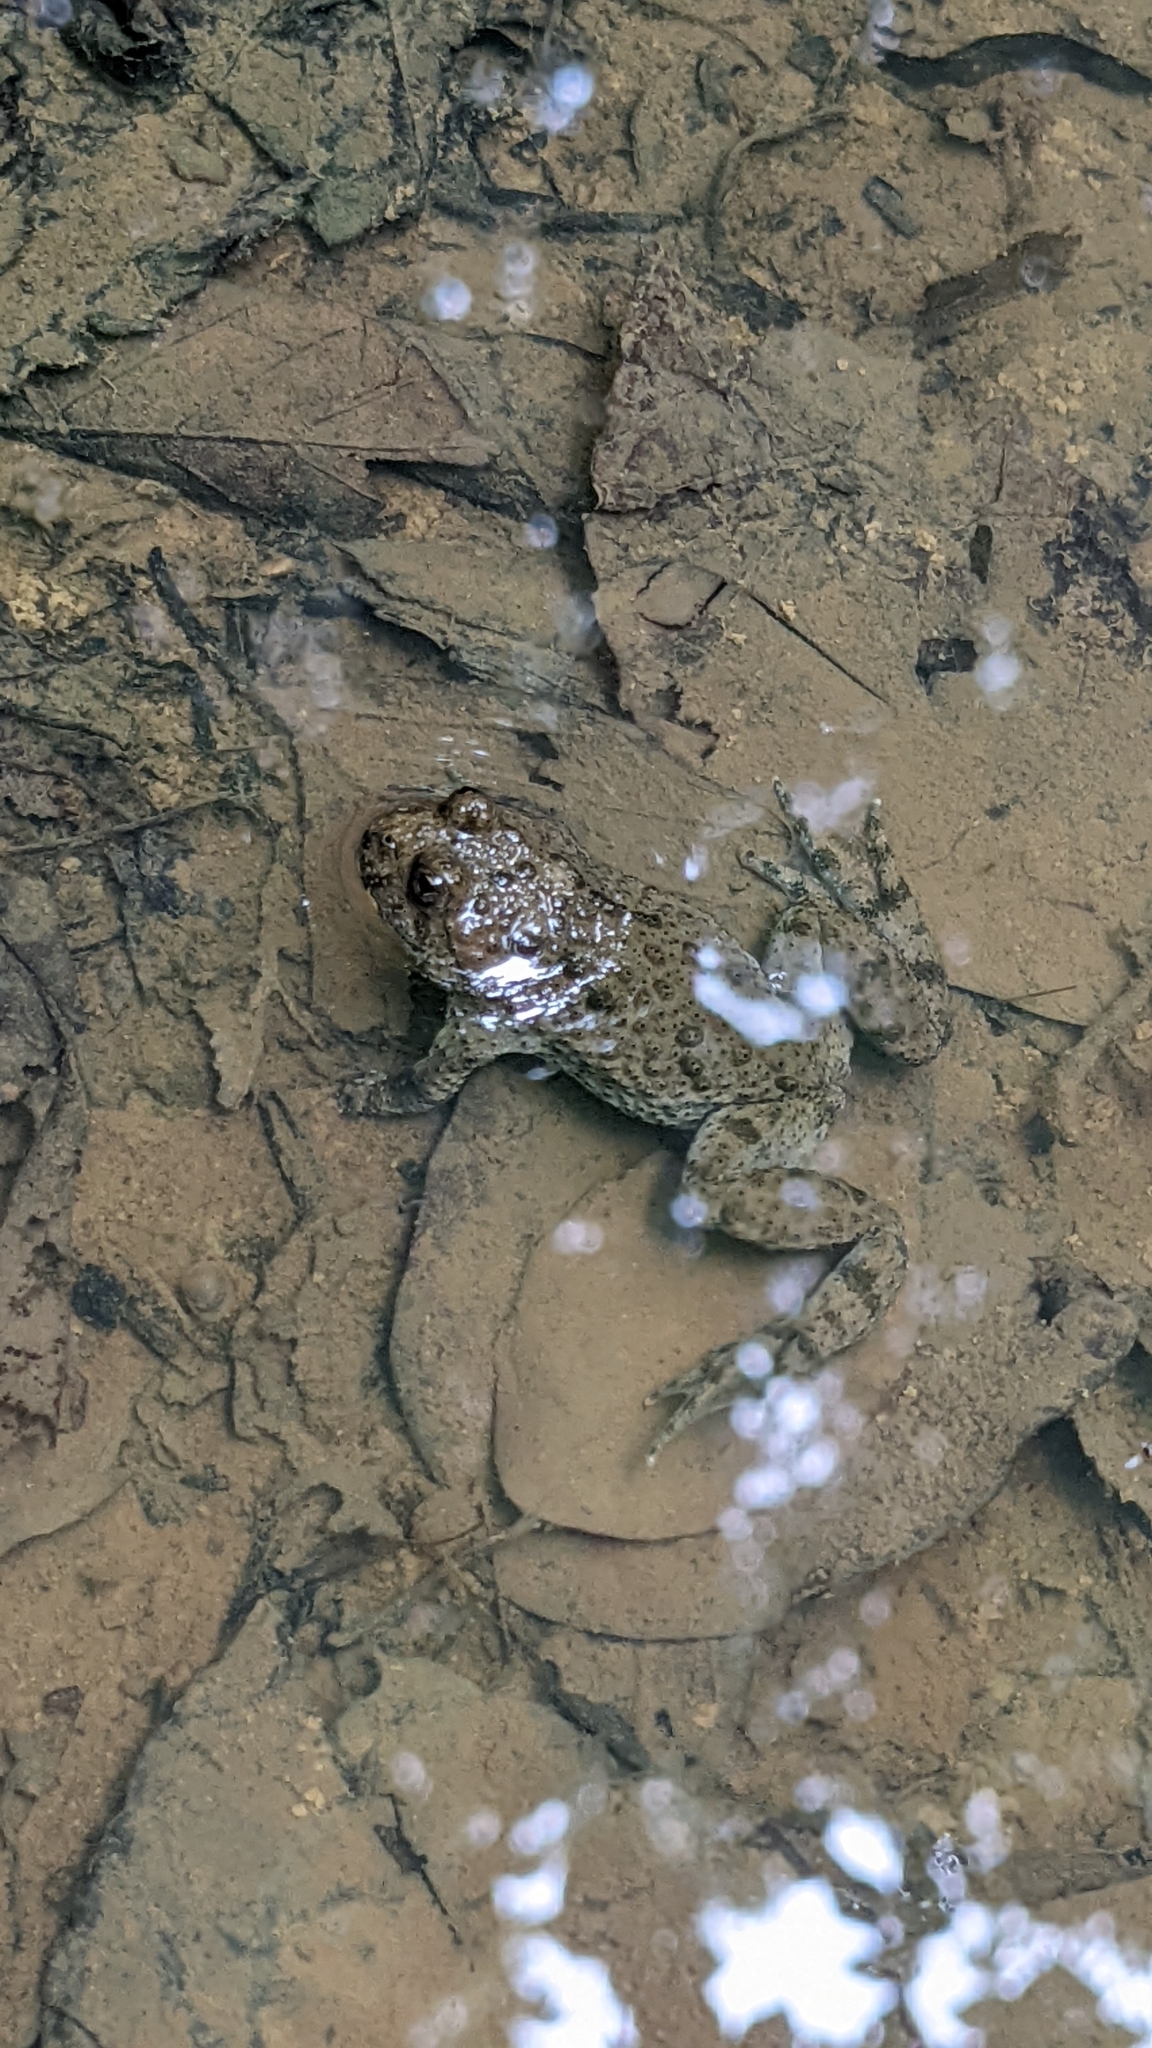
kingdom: Animalia
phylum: Chordata
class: Amphibia
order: Anura
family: Bombinatoridae
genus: Bombina
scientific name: Bombina variegata
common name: Yellow-bellied toad
